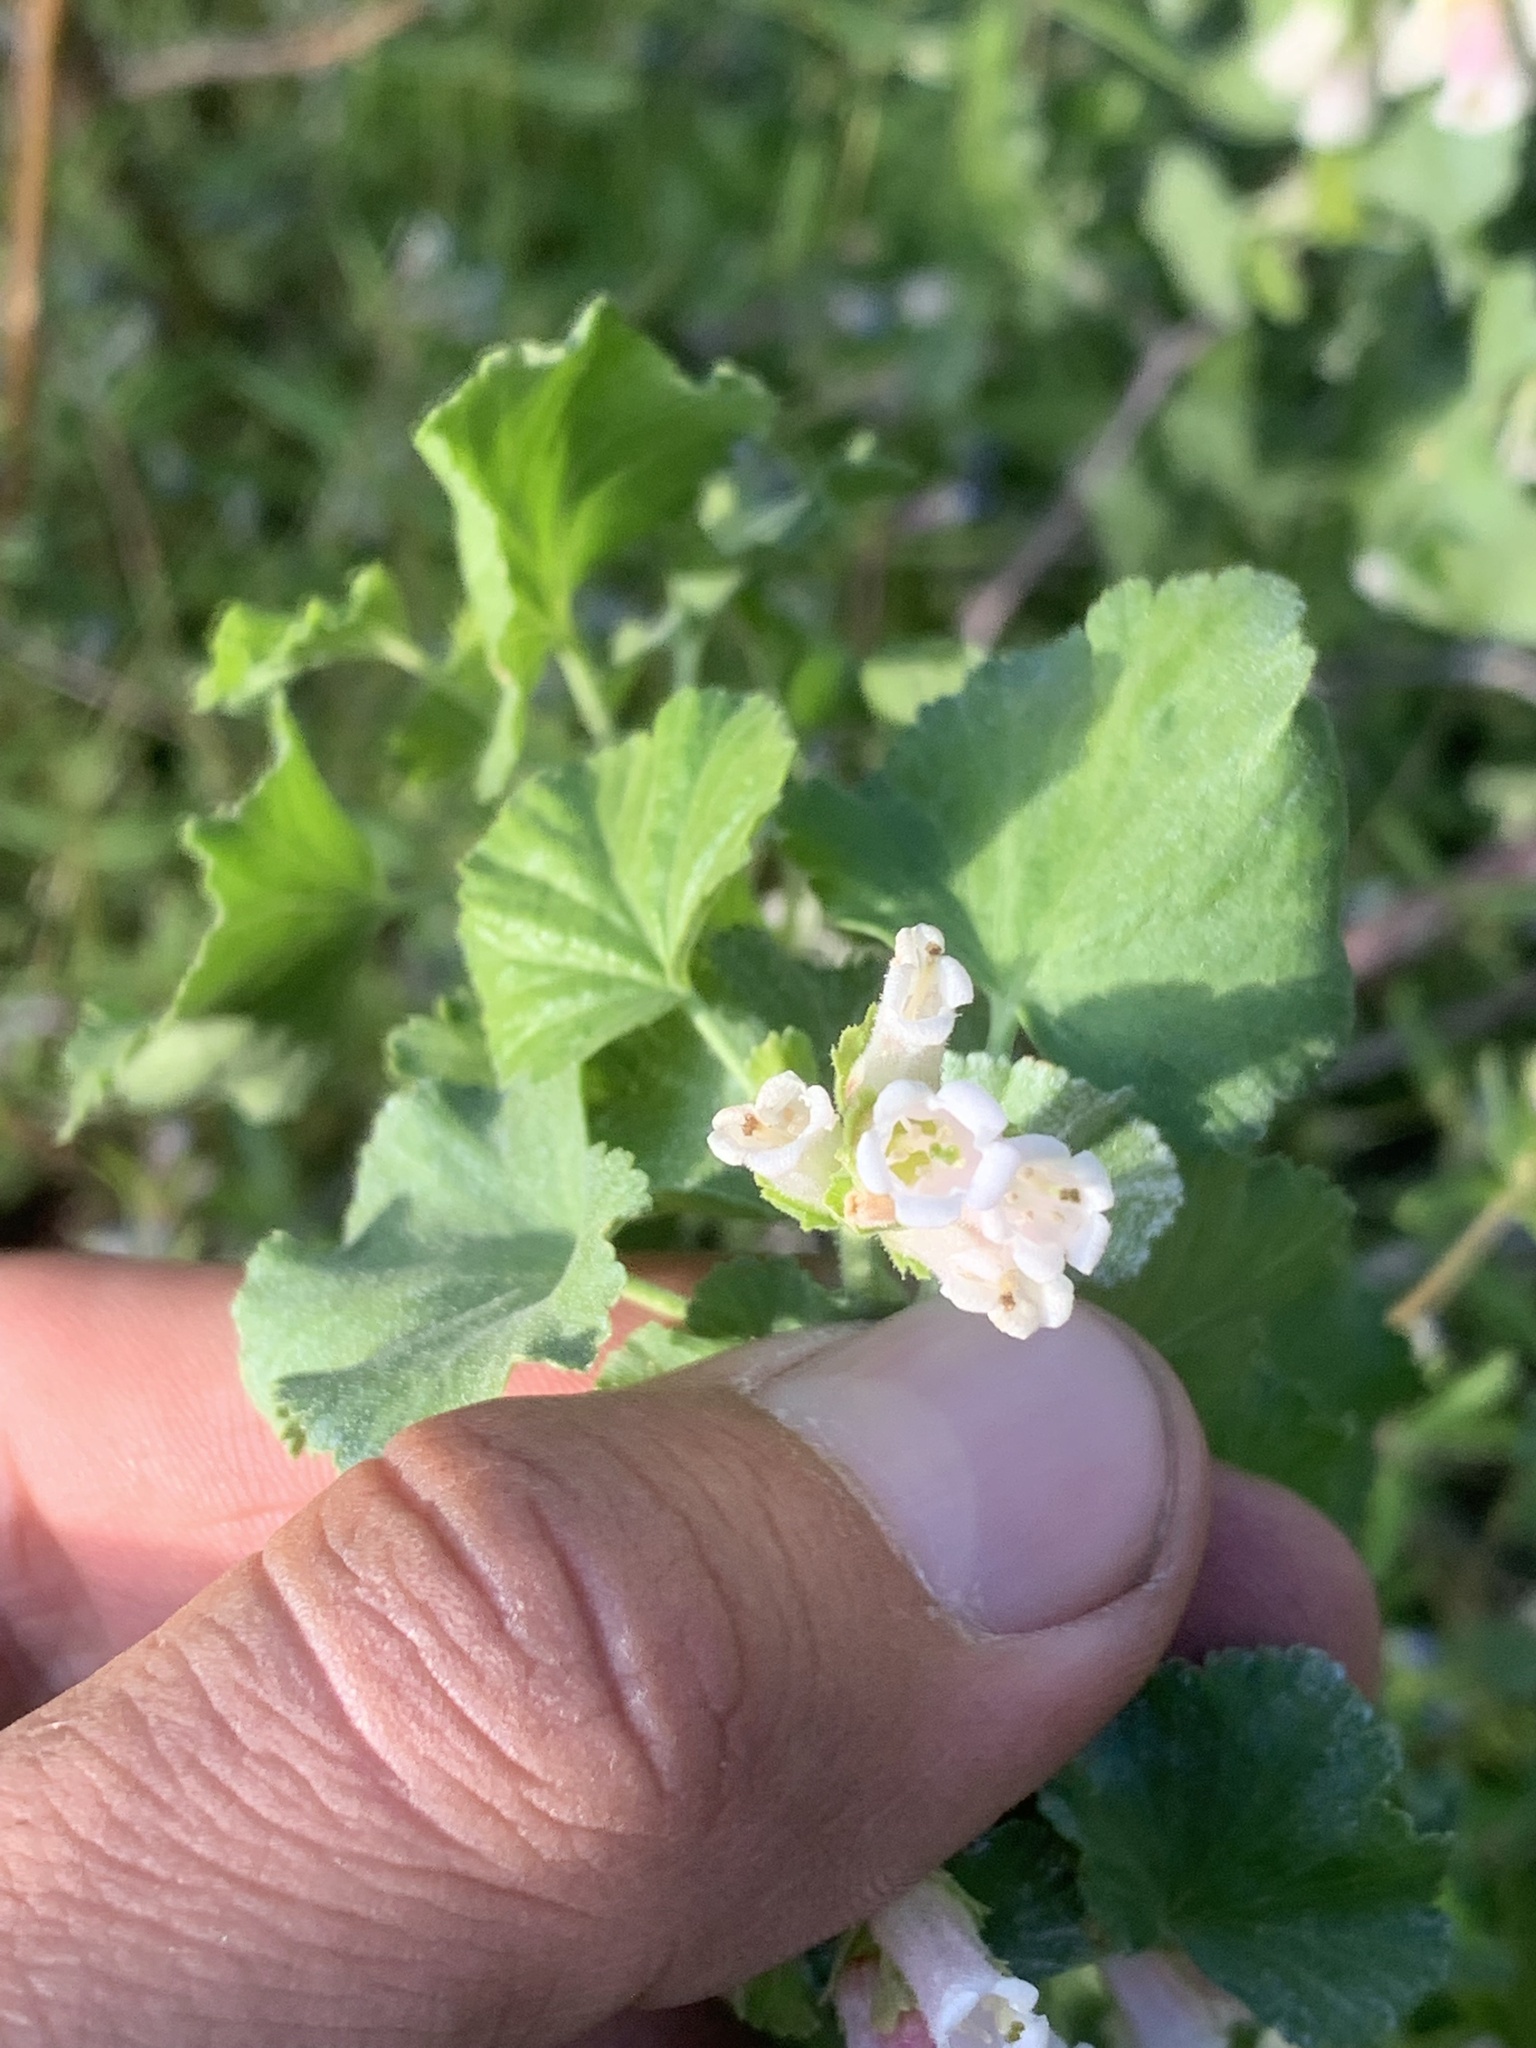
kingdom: Plantae
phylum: Tracheophyta
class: Magnoliopsida
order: Saxifragales
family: Grossulariaceae
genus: Ribes
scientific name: Ribes cereum
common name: Wax currant
